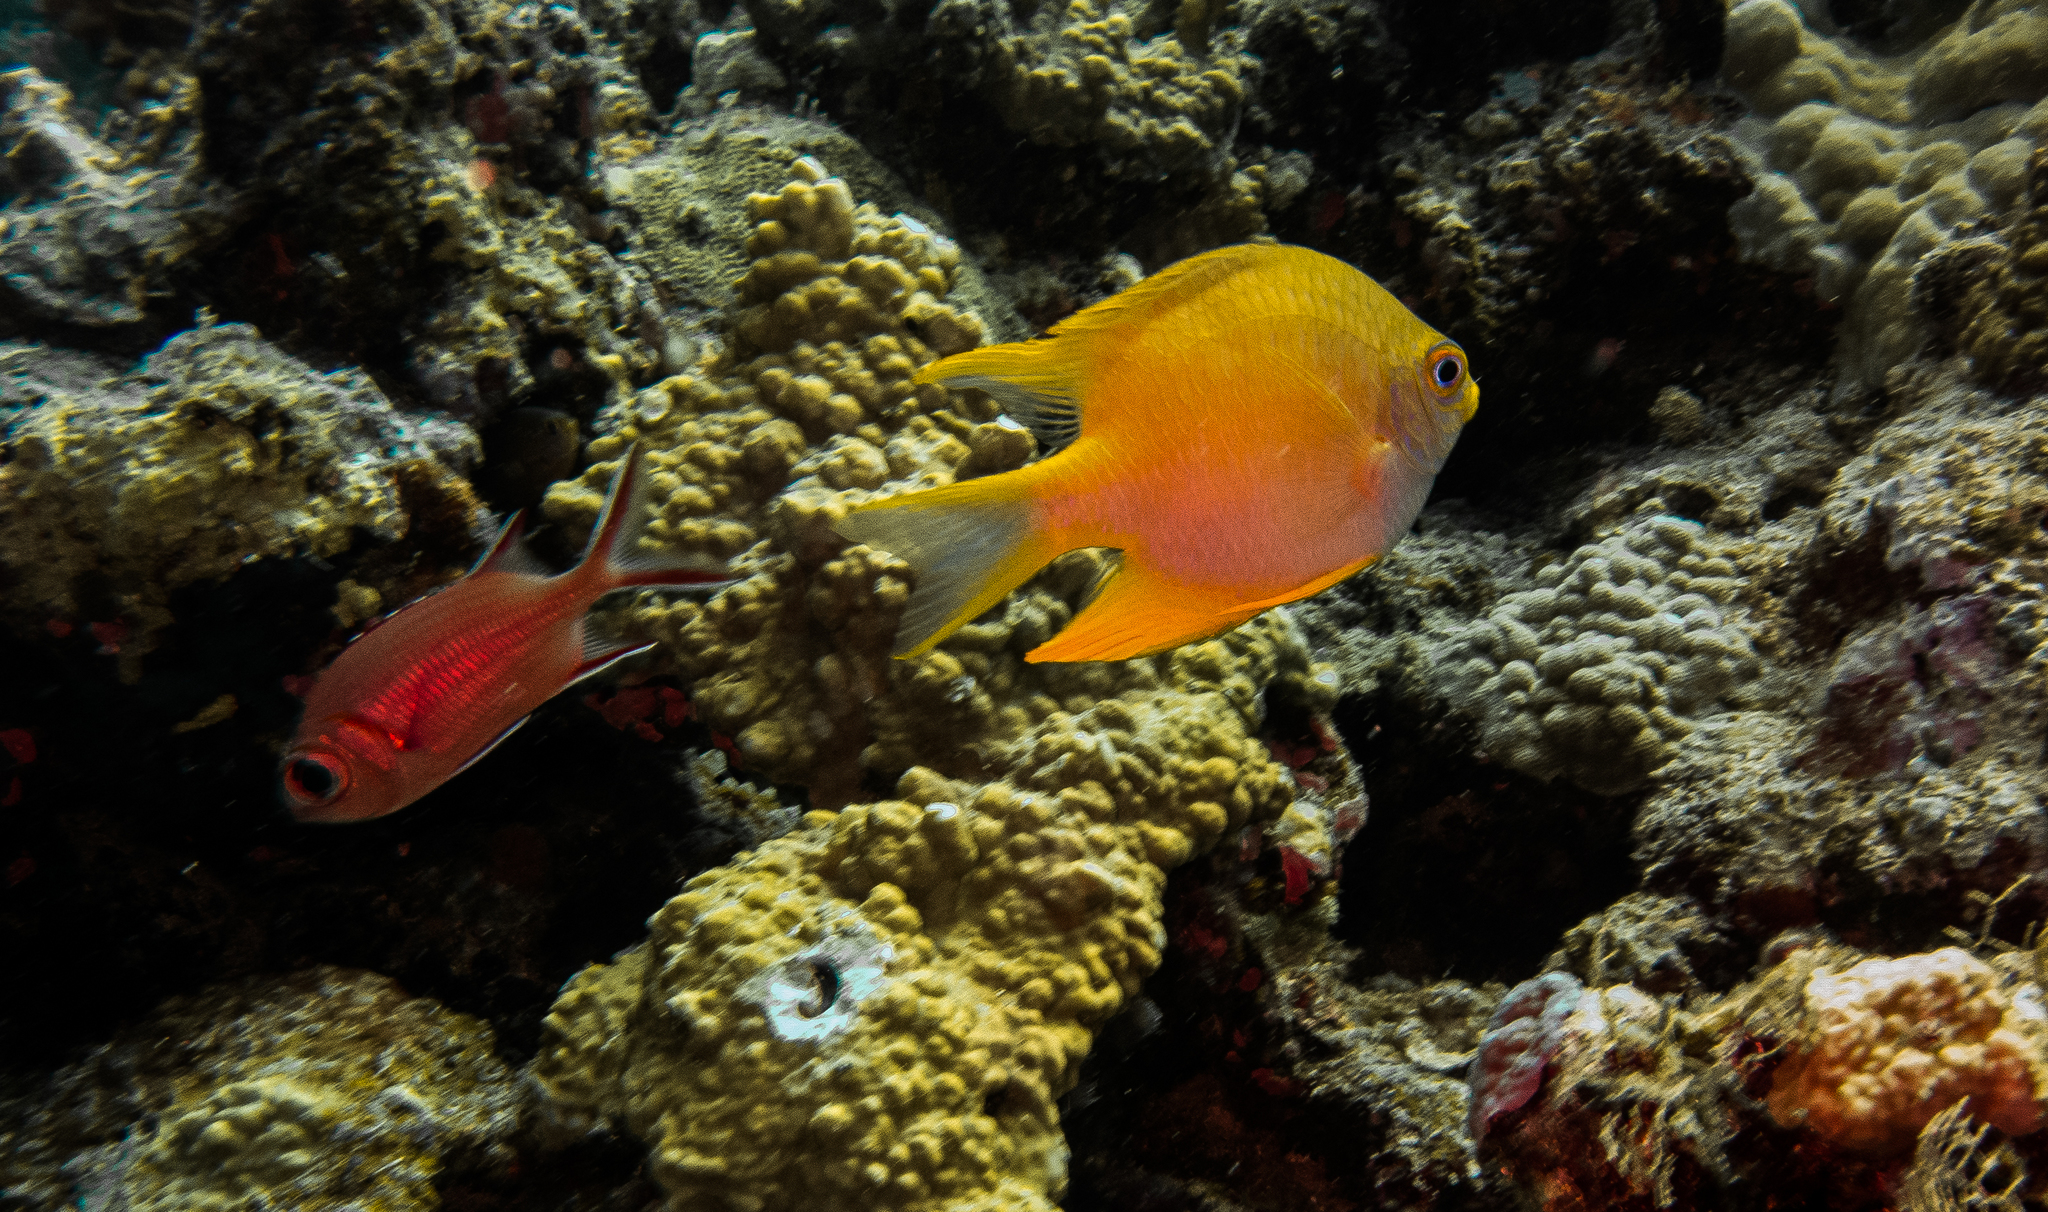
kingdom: Animalia
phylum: Chordata
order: Perciformes
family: Pomacentridae
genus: Amblyglyphidodon
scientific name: Amblyglyphidodon aureus
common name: Golden damsel
